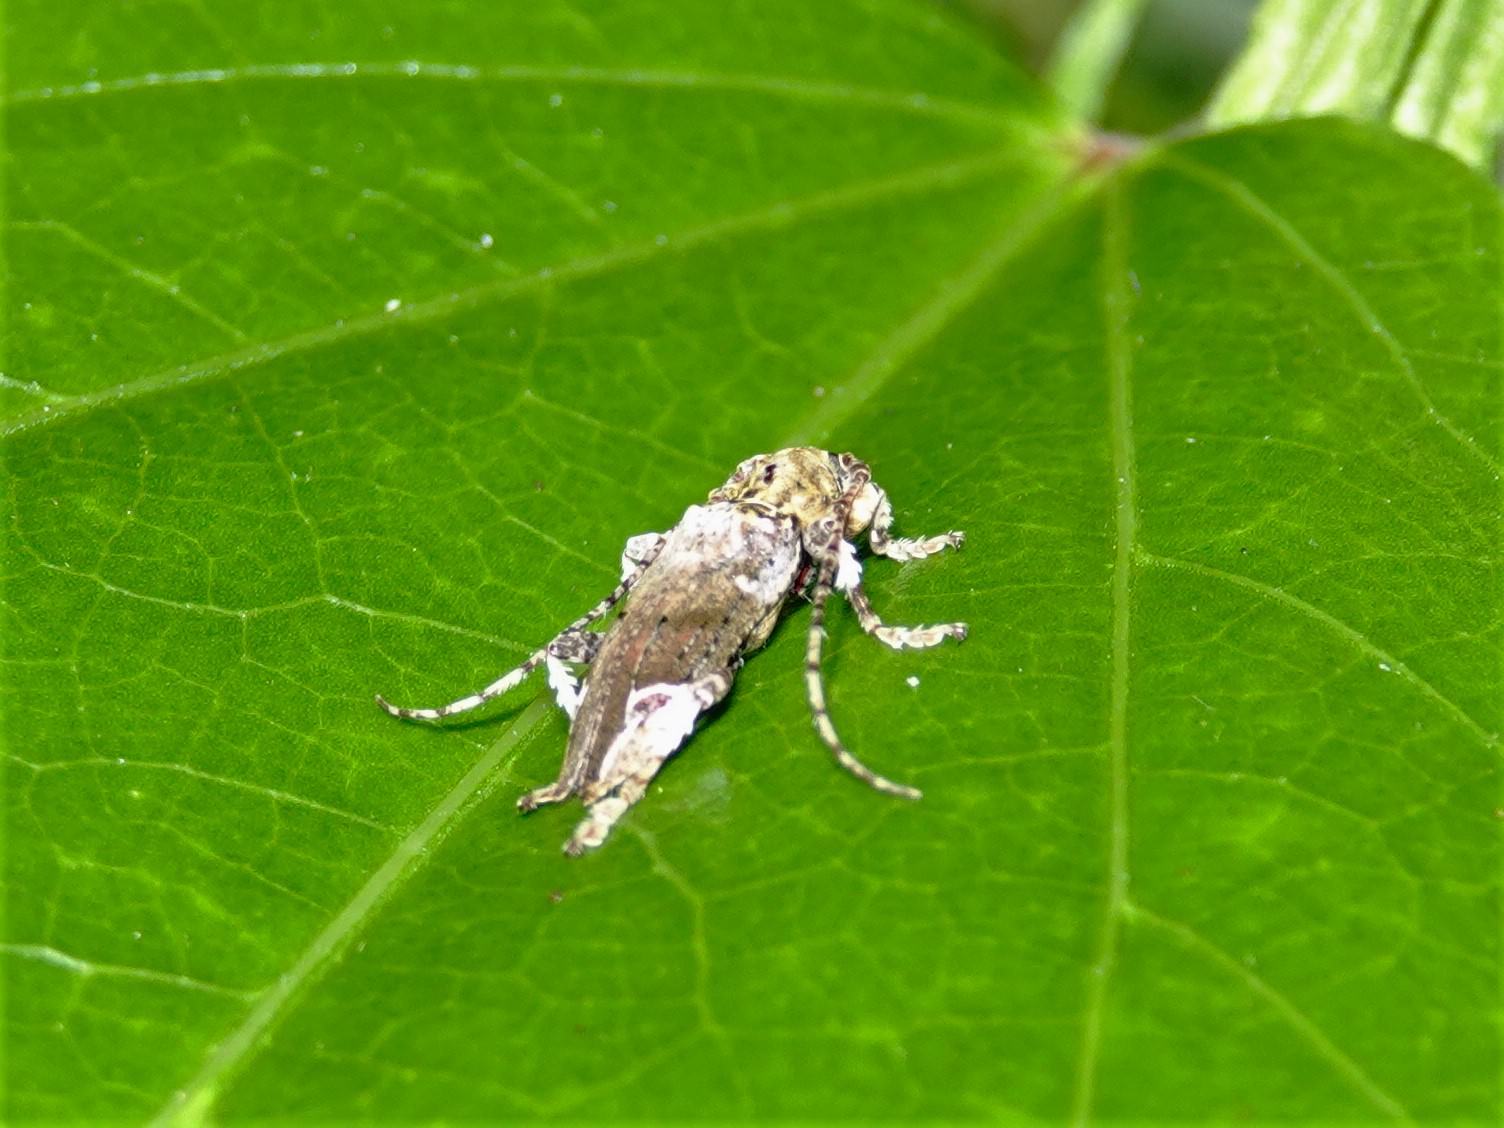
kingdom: Animalia
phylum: Arthropoda
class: Insecta
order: Coleoptera
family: Cerambycidae
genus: Tetrorea
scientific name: Tetrorea cilipes
